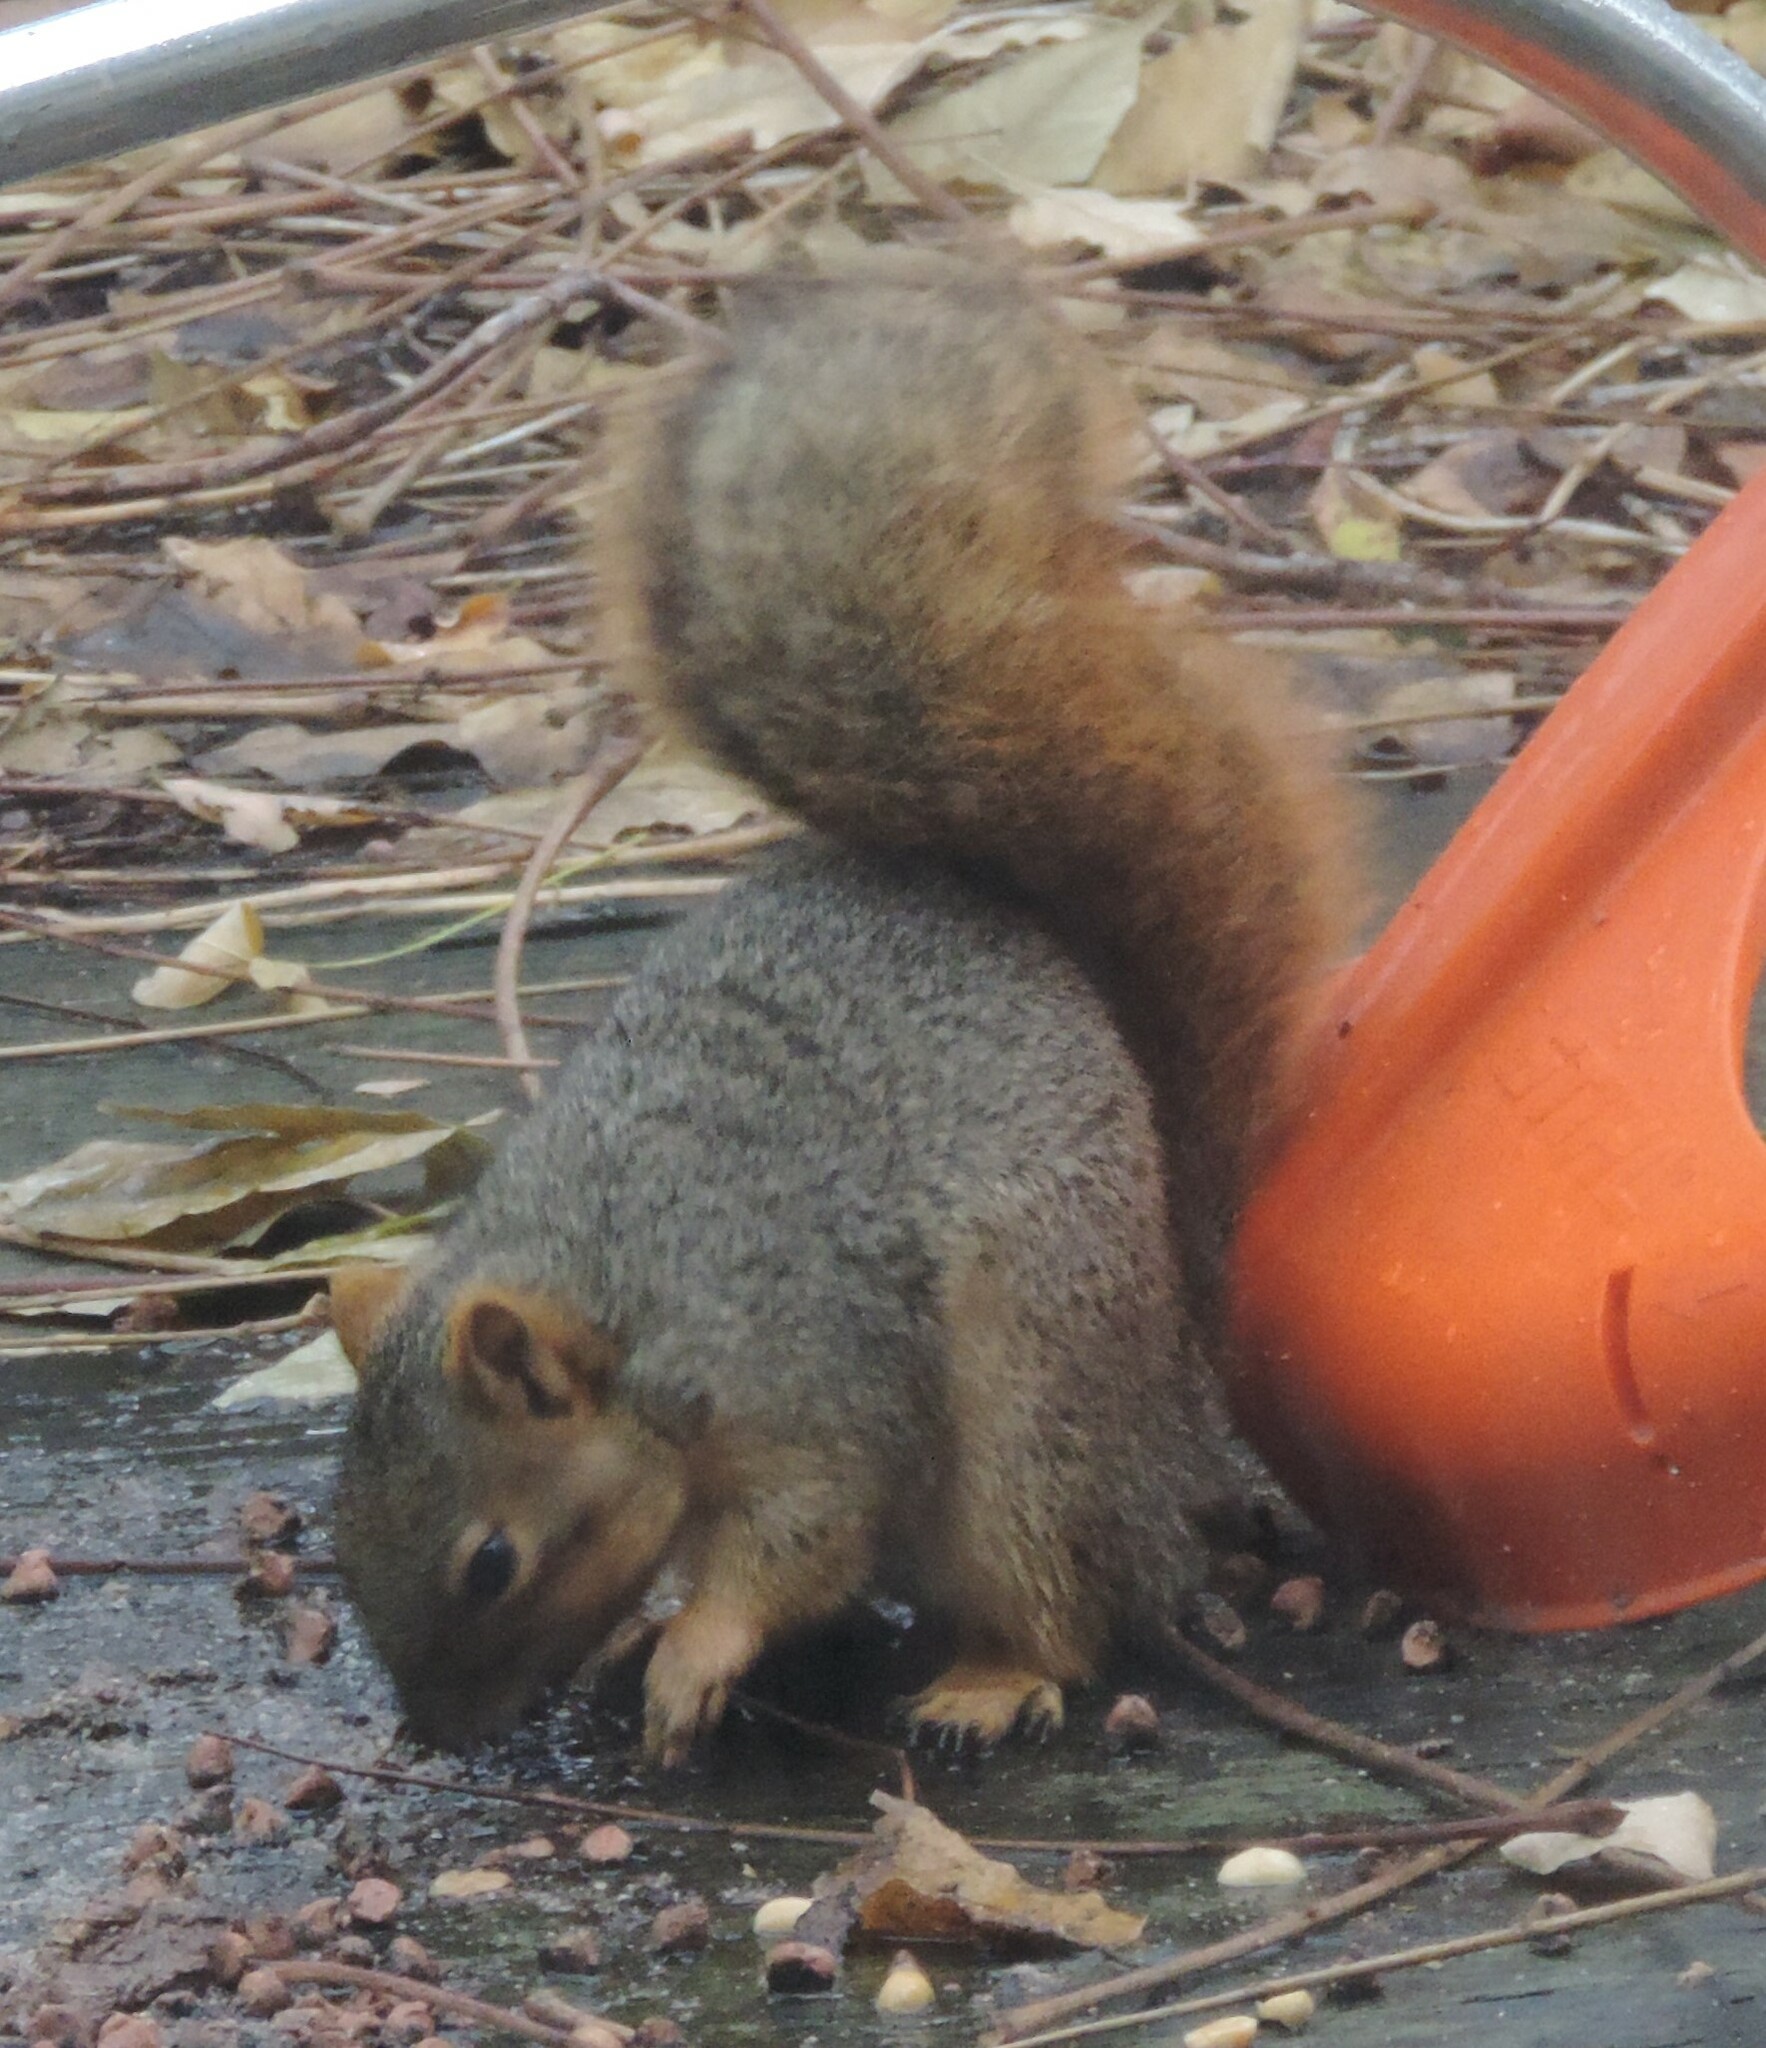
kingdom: Animalia
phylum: Chordata
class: Mammalia
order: Rodentia
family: Sciuridae
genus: Sciurus
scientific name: Sciurus niger
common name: Fox squirrel
